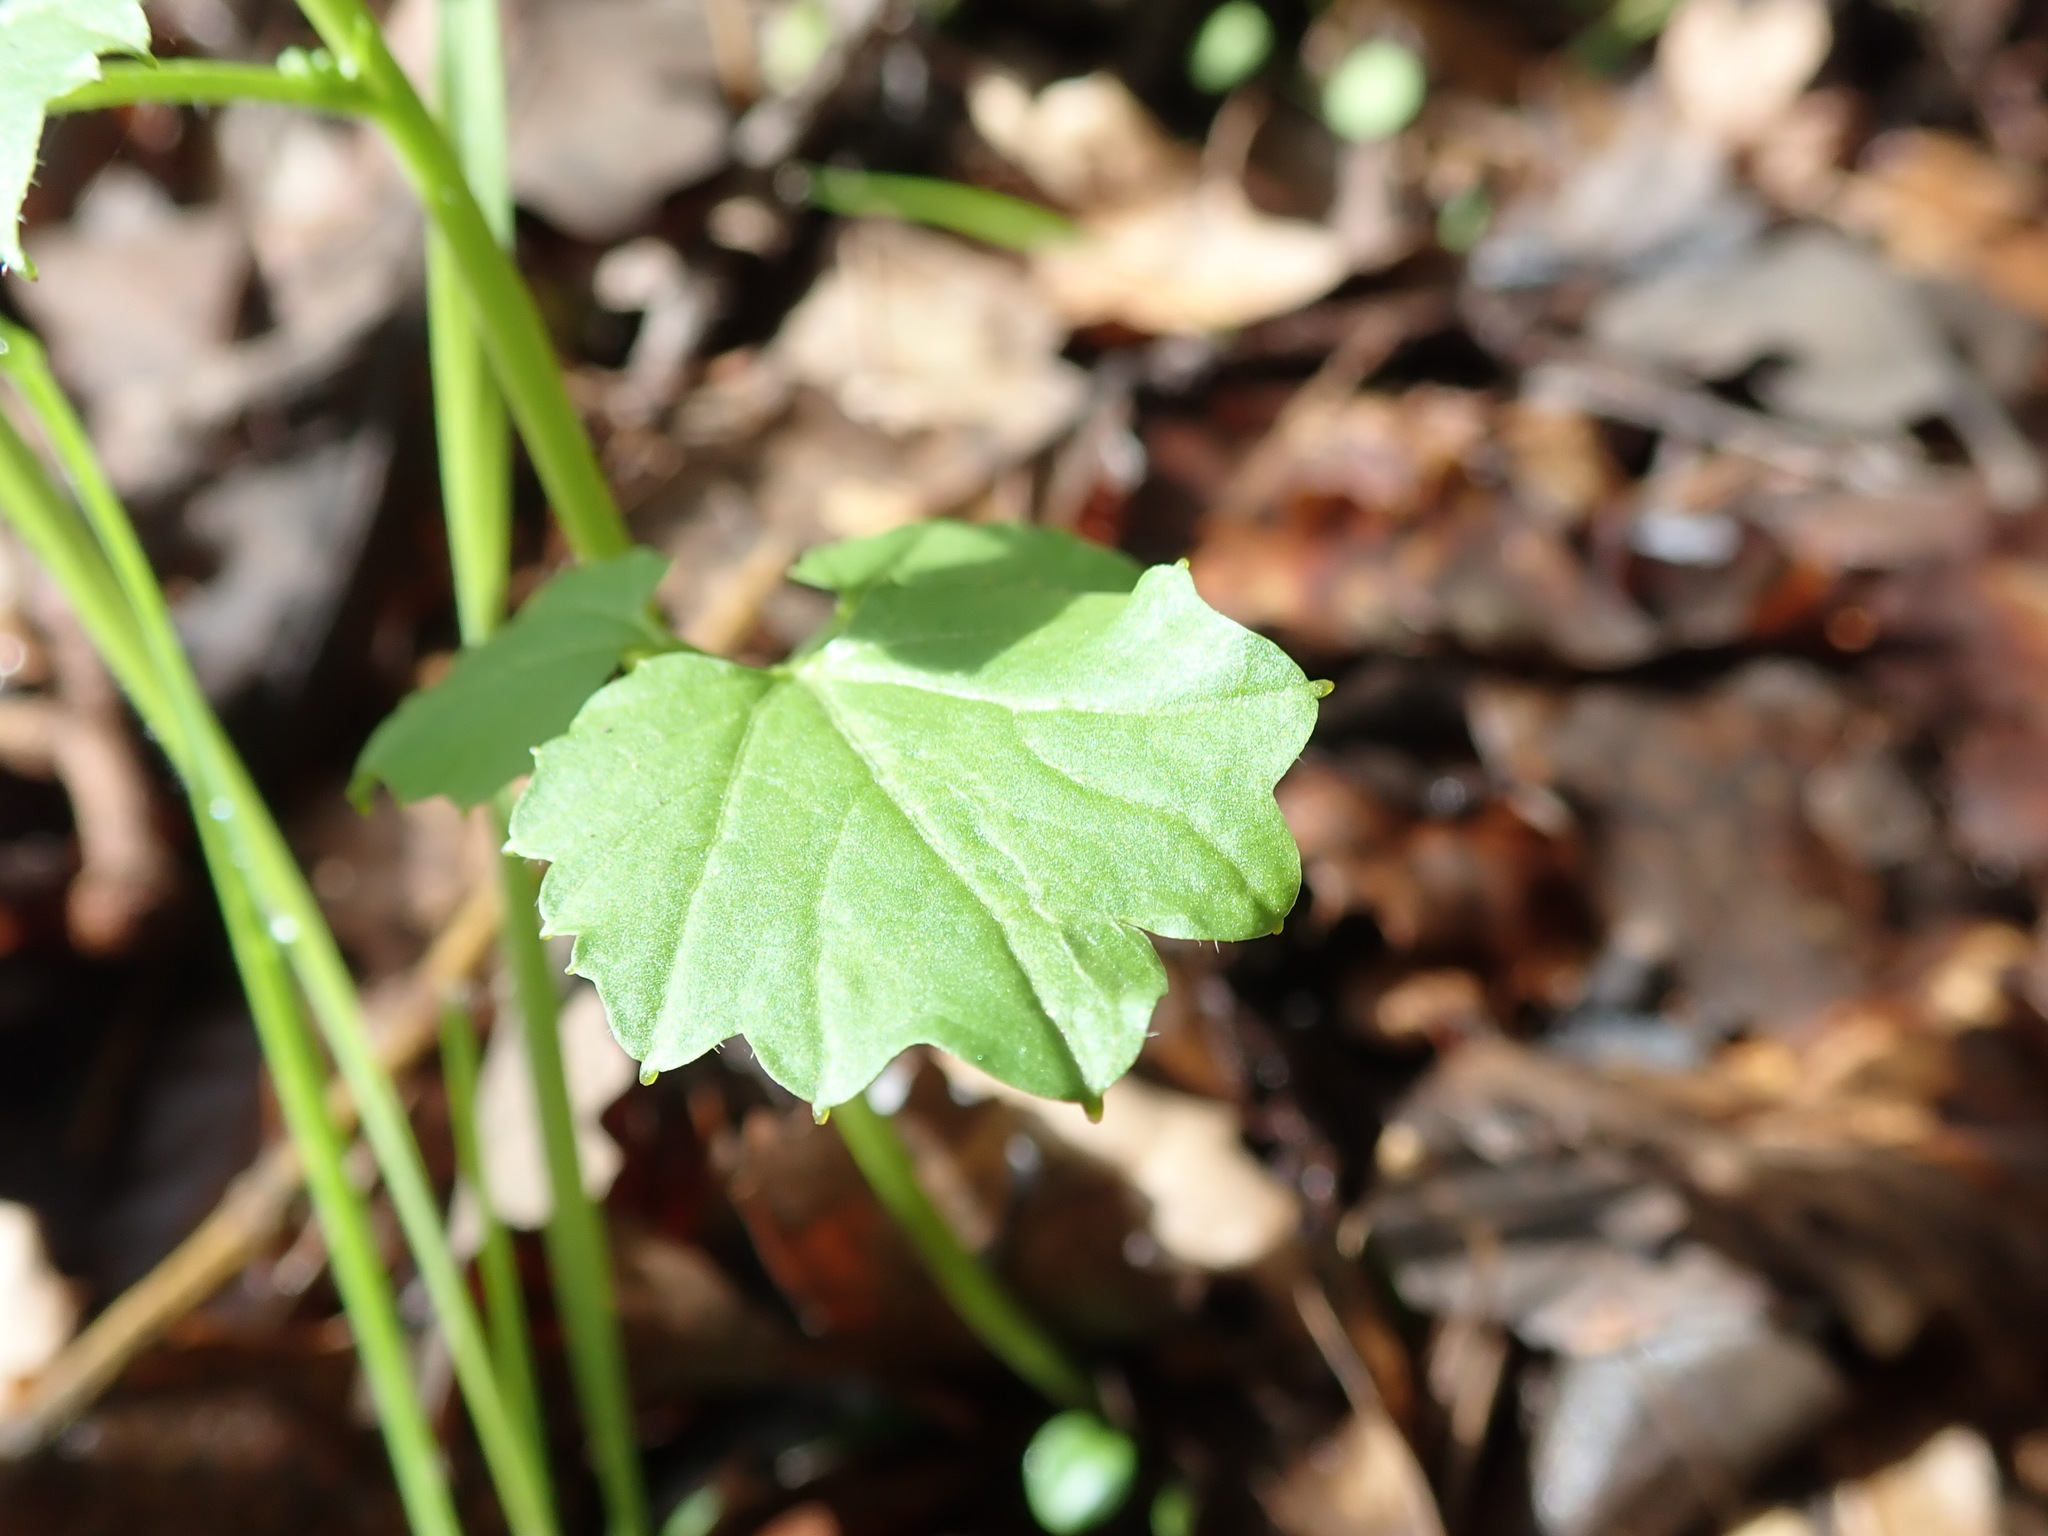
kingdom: Plantae
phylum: Tracheophyta
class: Magnoliopsida
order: Brassicales
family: Brassicaceae
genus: Cardamine
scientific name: Cardamine californica
